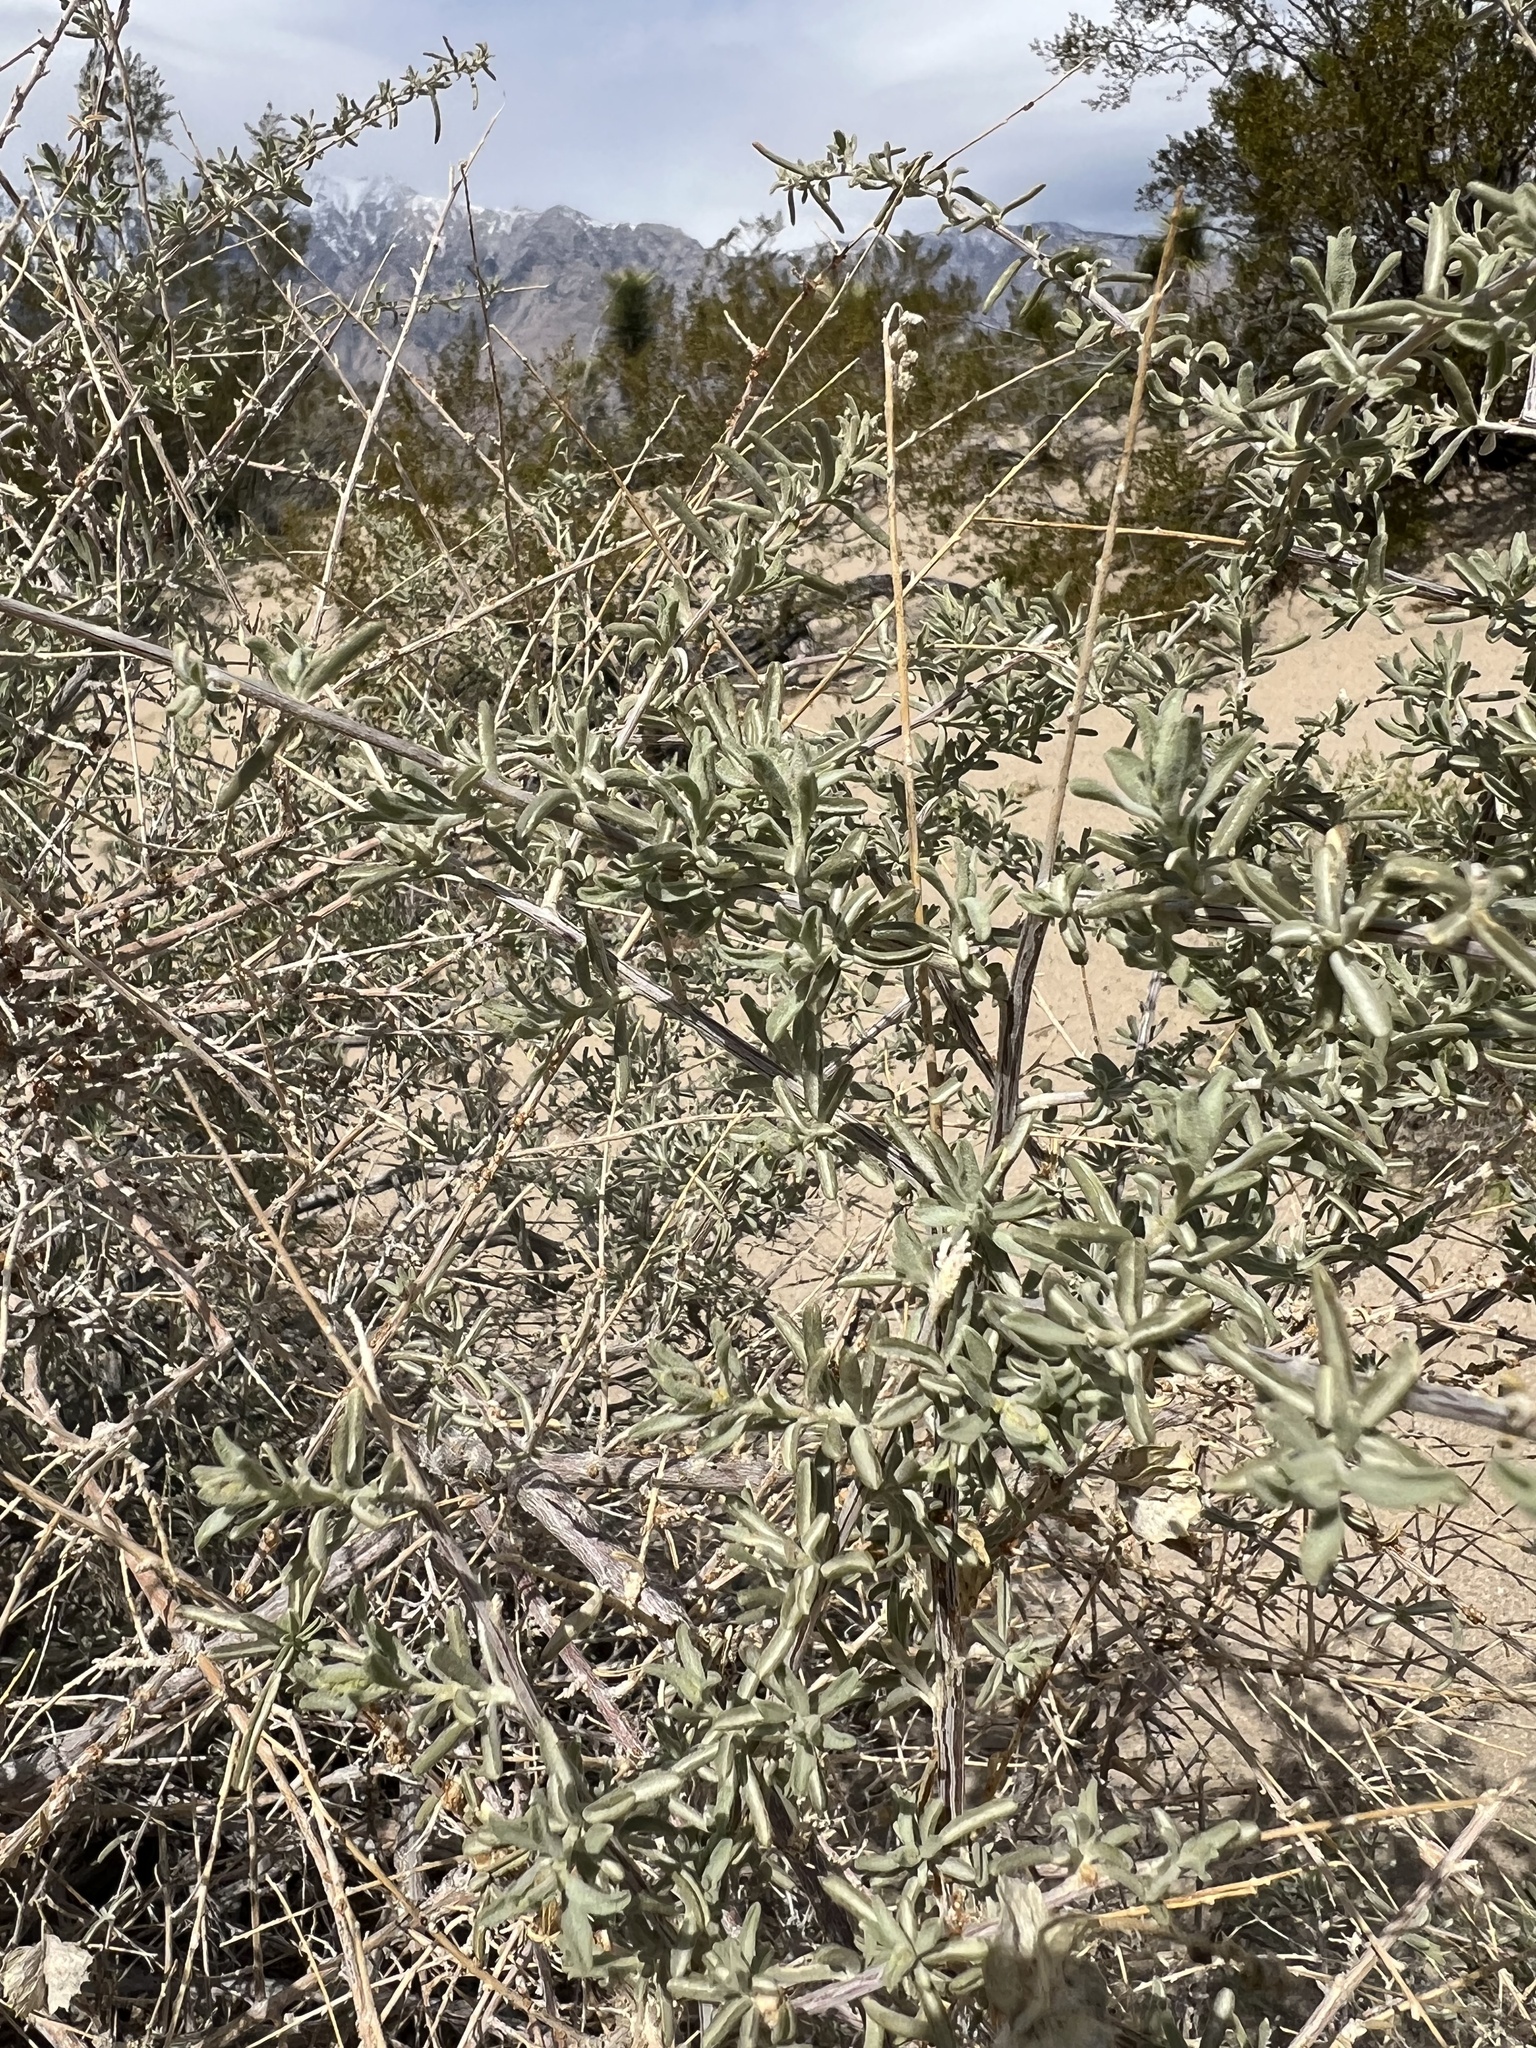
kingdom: Plantae
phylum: Tracheophyta
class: Magnoliopsida
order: Caryophyllales
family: Amaranthaceae
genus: Atriplex
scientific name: Atriplex canescens
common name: Four-wing saltbush
